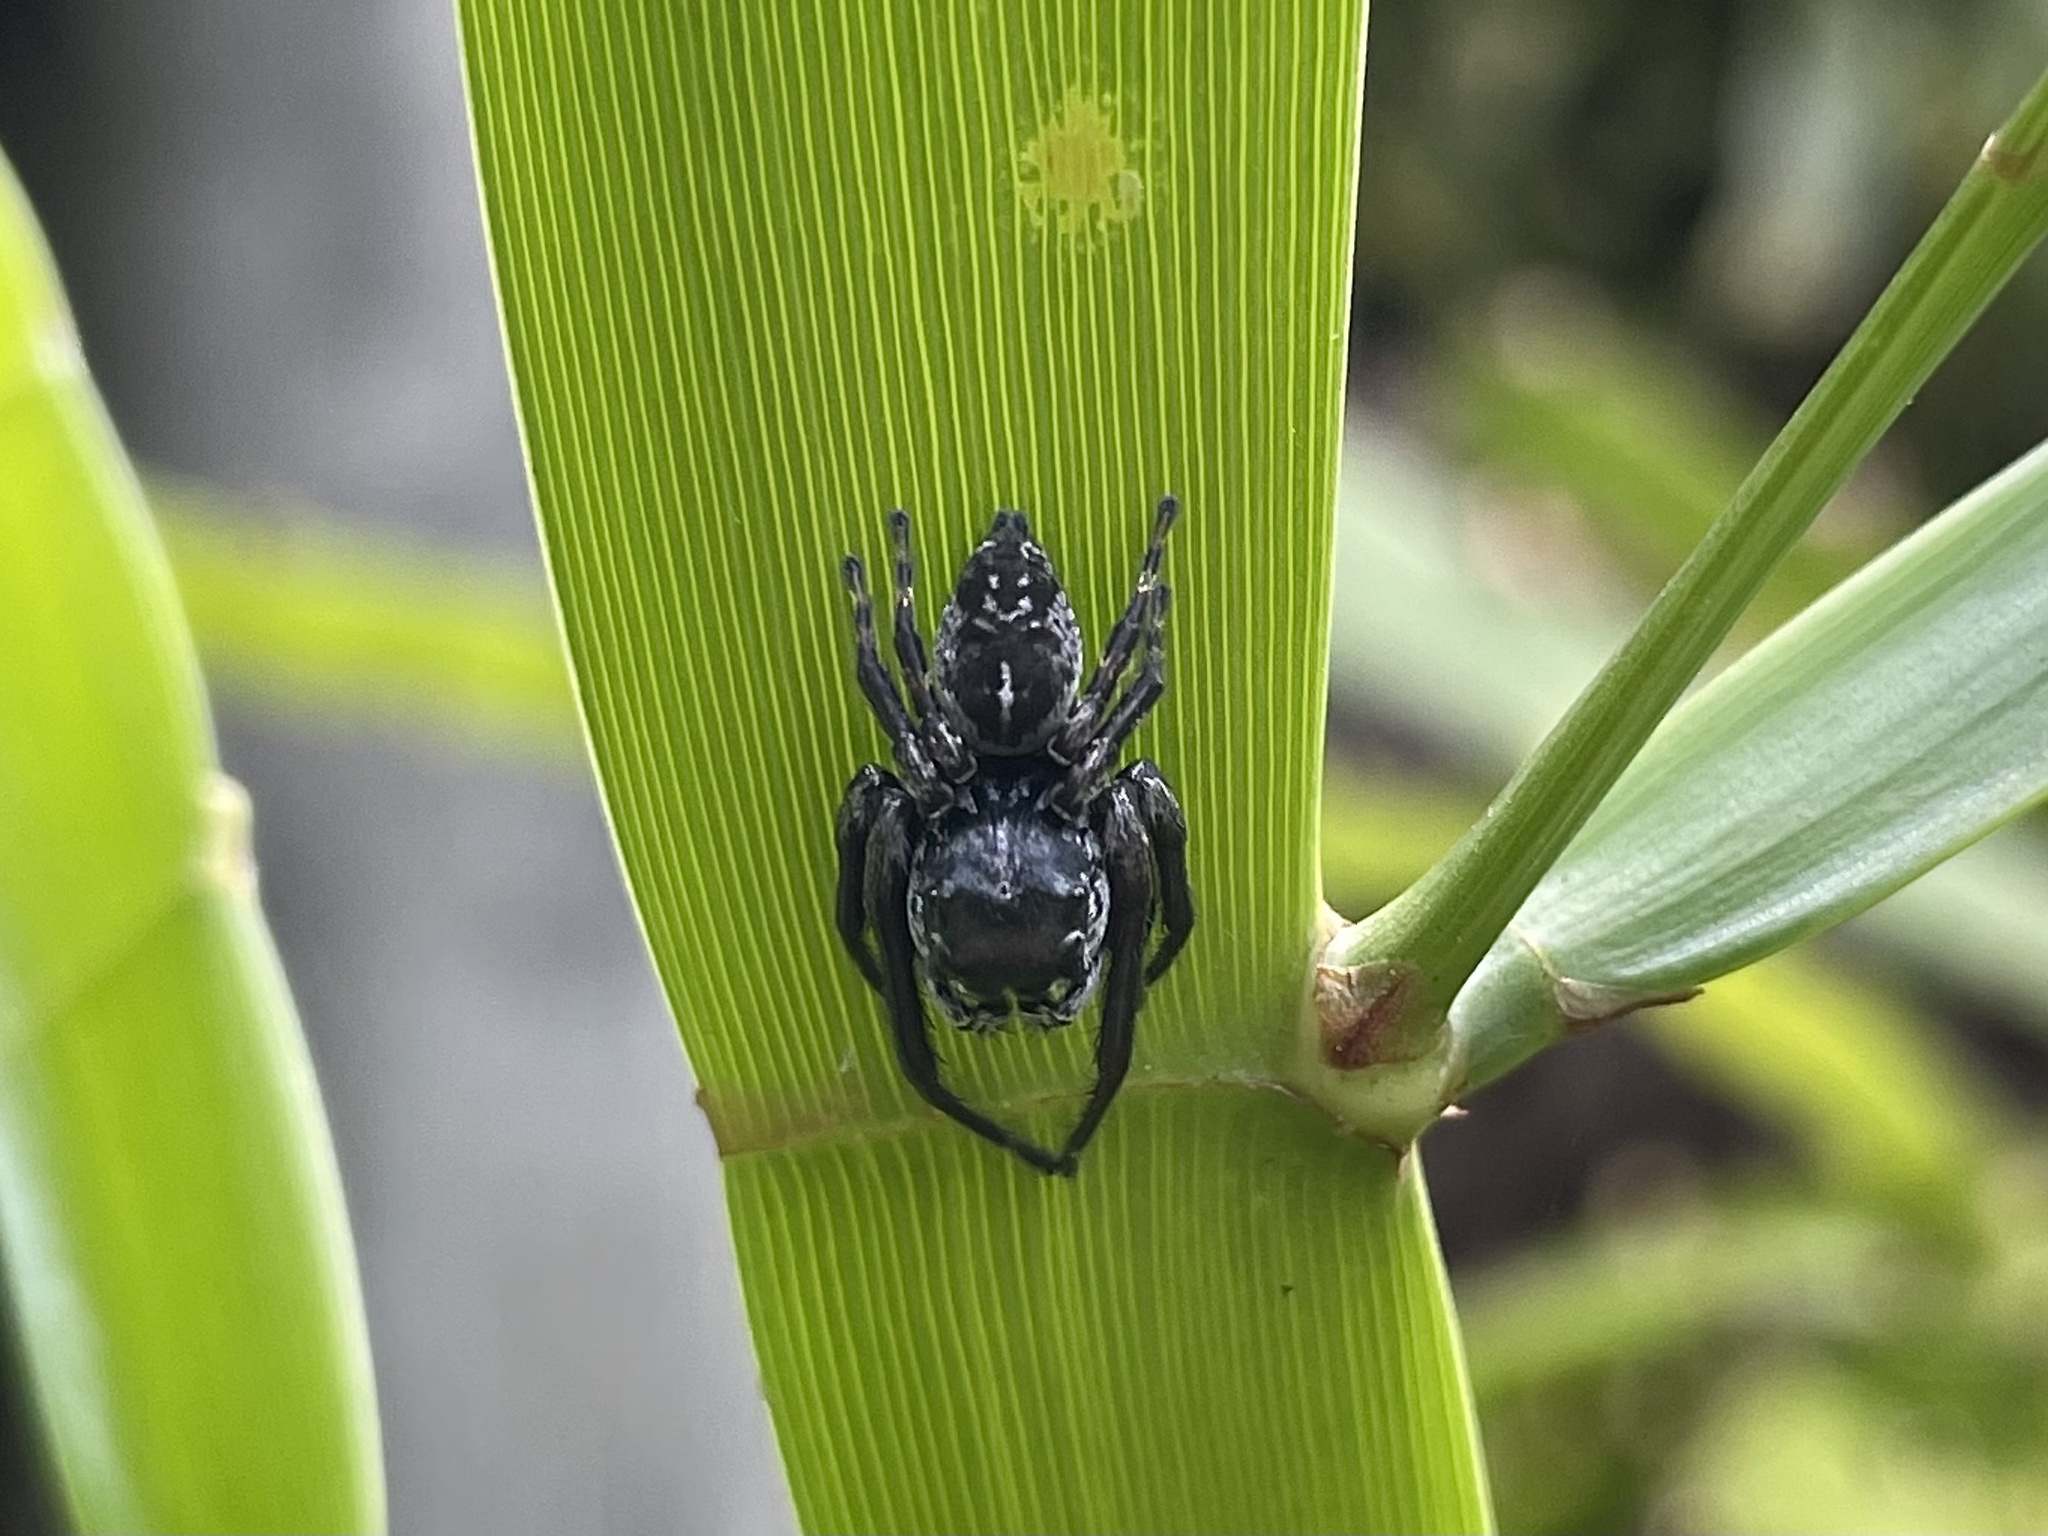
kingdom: Animalia
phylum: Arthropoda
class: Arachnida
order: Araneae
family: Salticidae
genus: Euryattus
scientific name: Euryattus bleekeri
